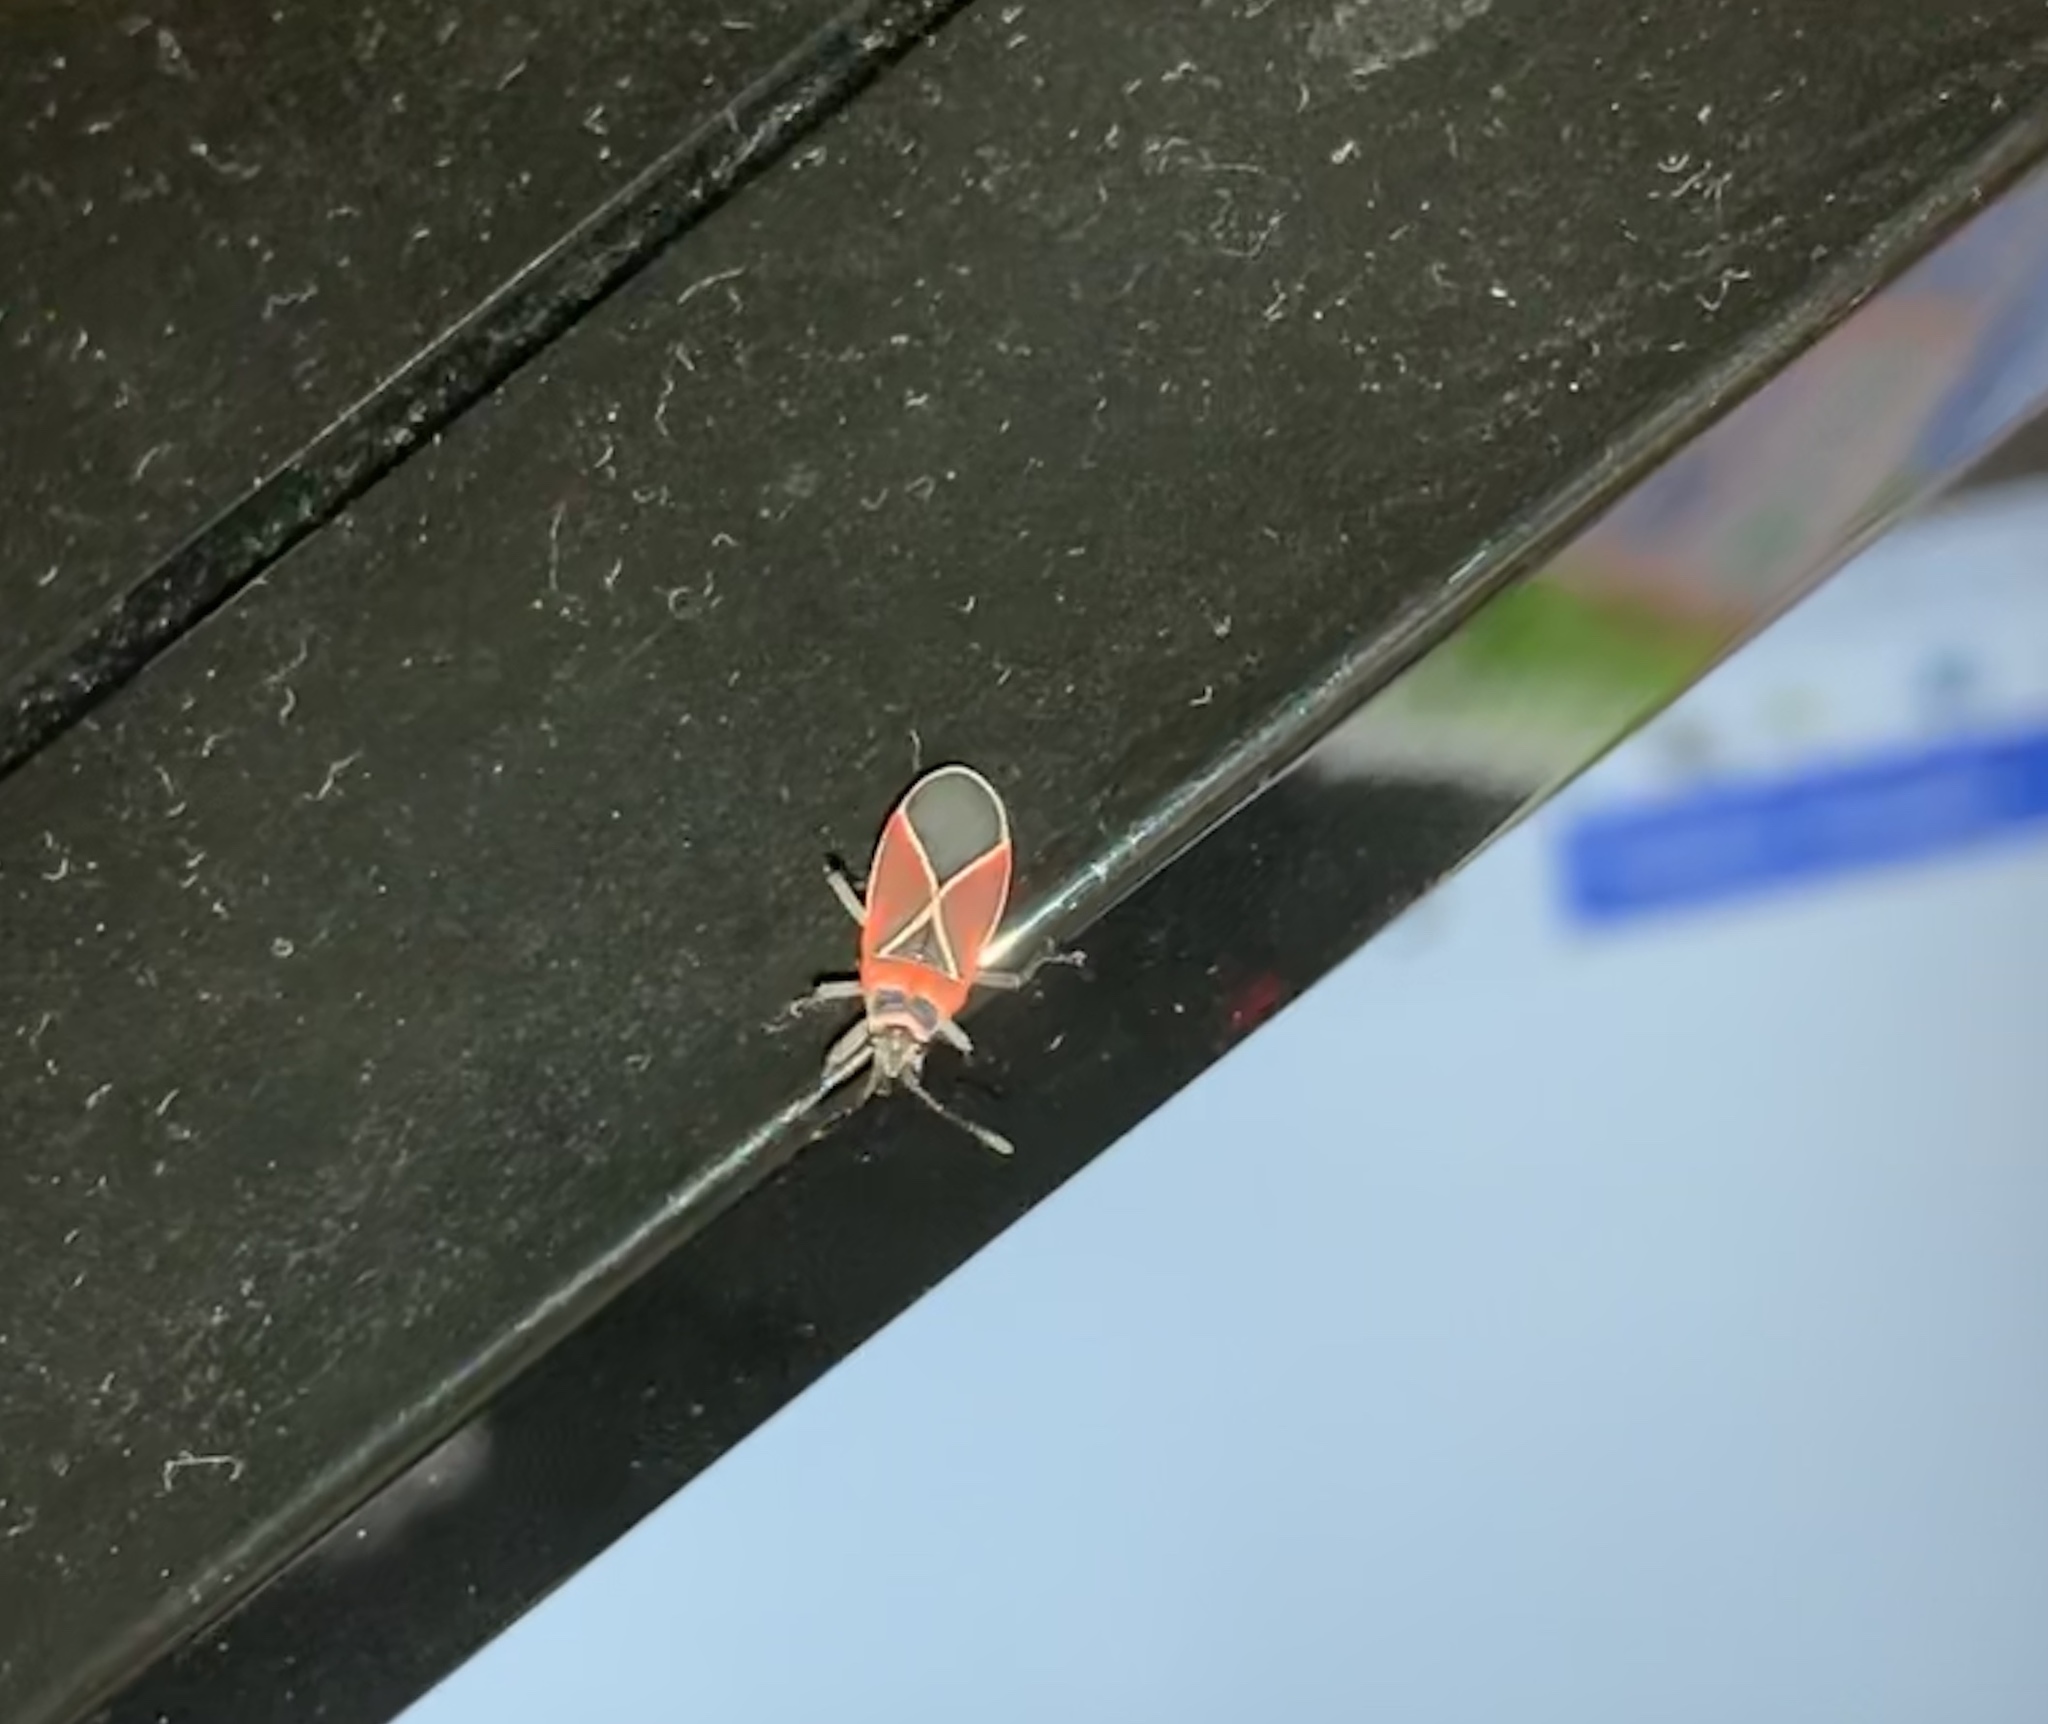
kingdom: Animalia
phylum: Arthropoda
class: Insecta
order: Hemiptera
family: Lygaeidae
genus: Neacoryphus
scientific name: Neacoryphus bicrucis
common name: Lygaeid bug
